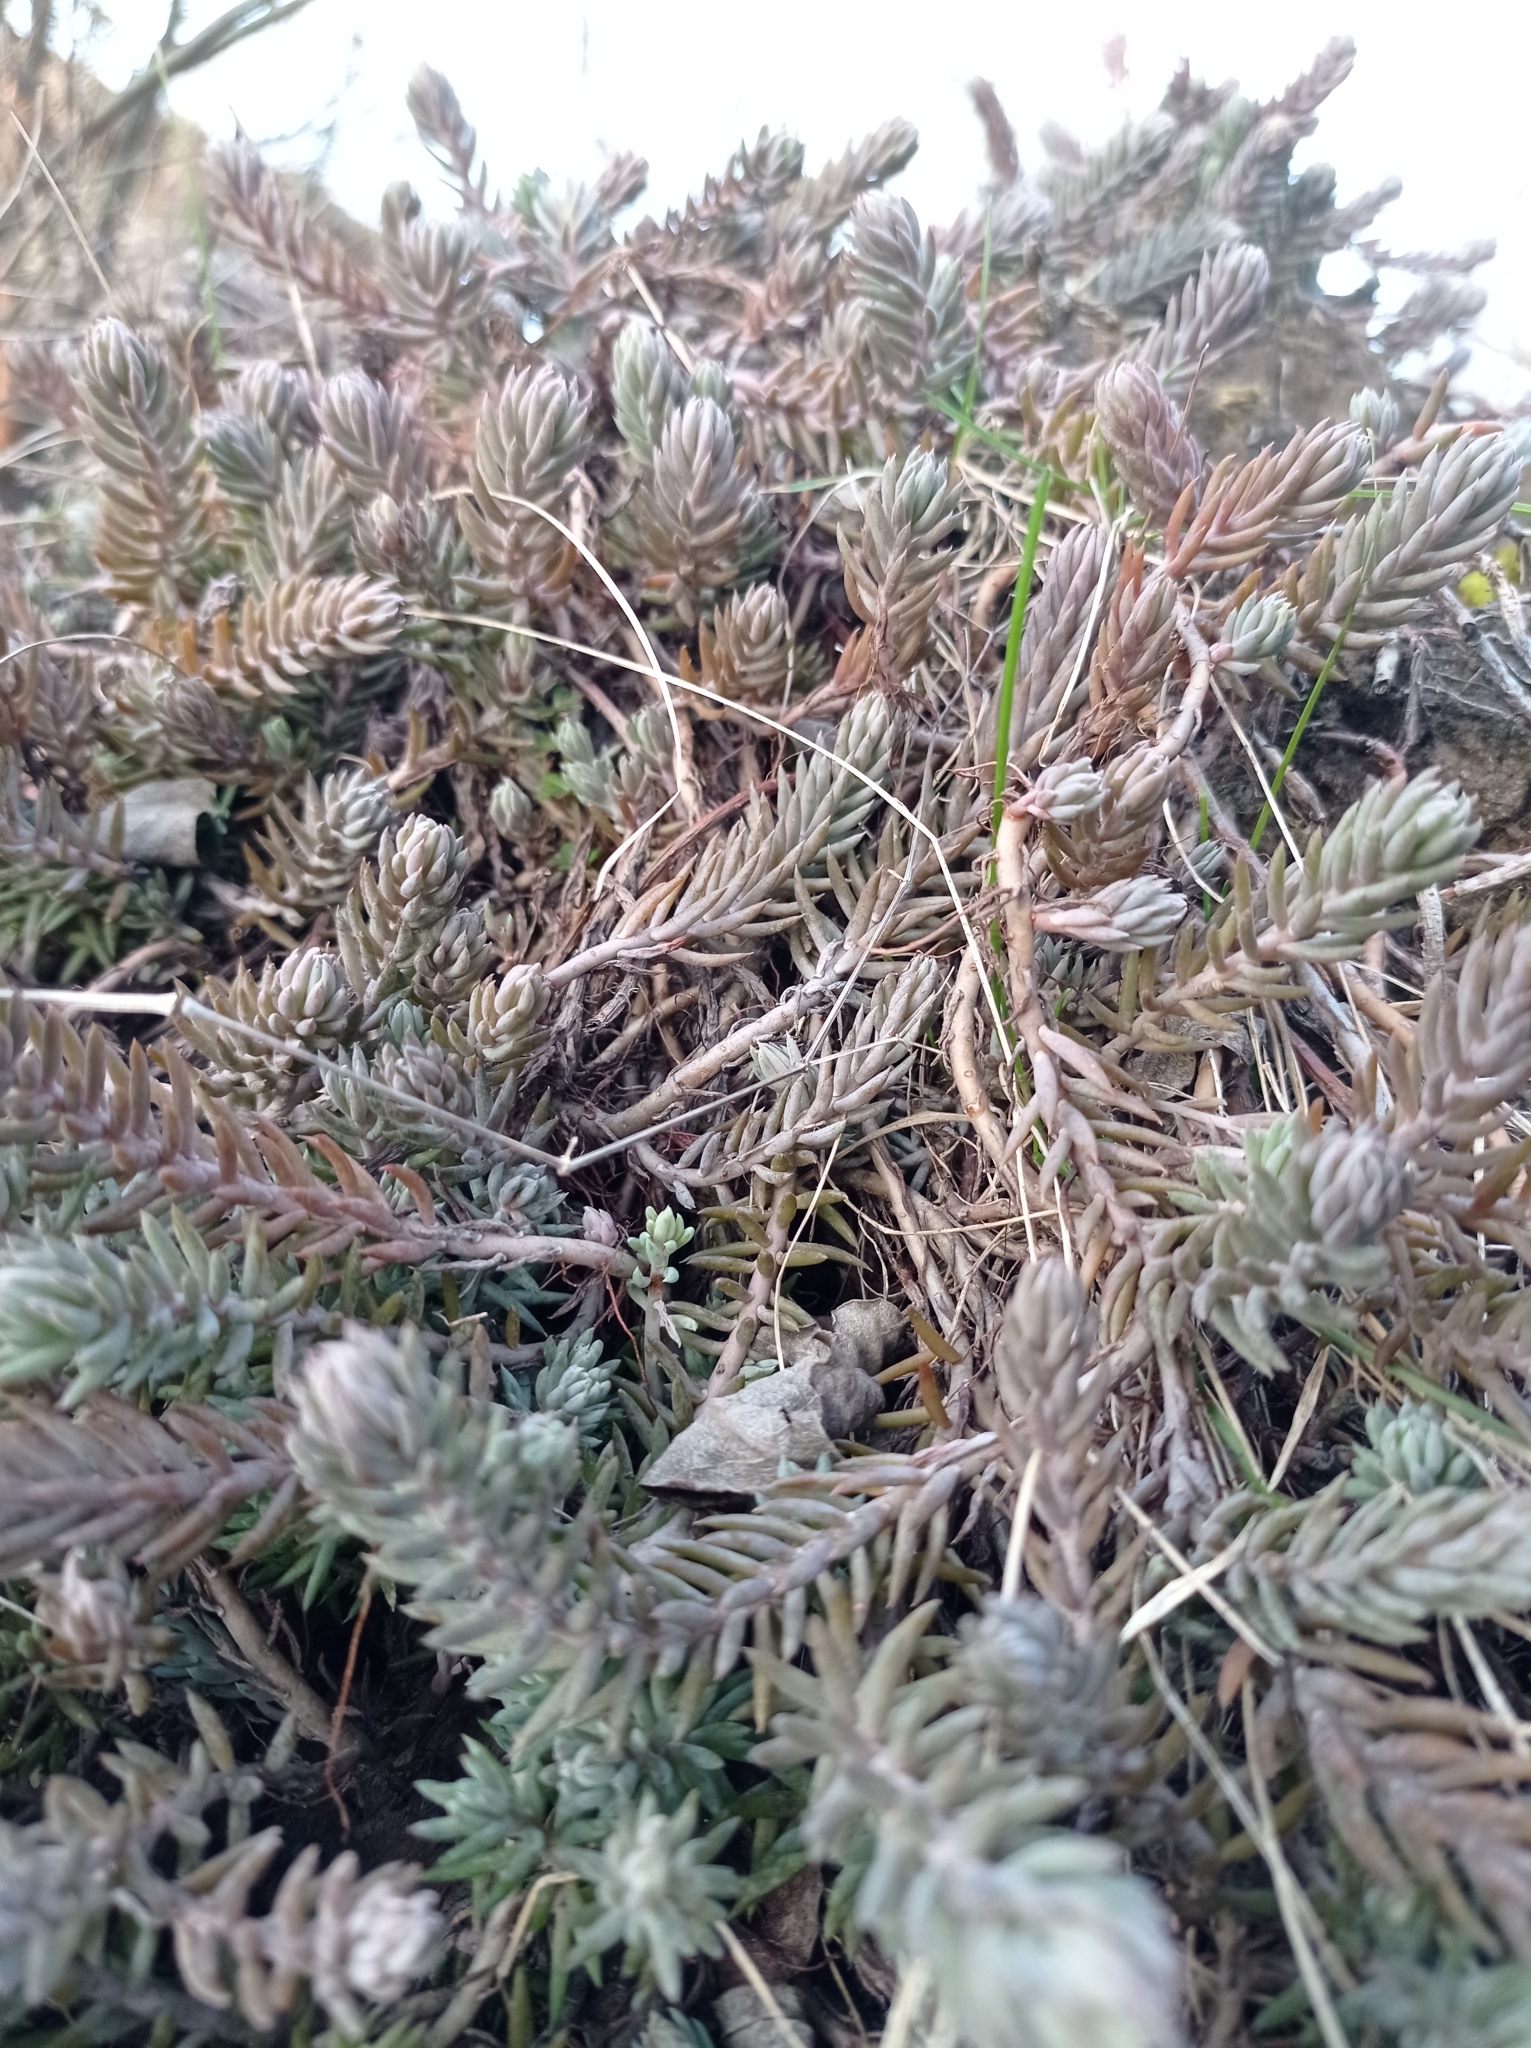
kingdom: Plantae
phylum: Tracheophyta
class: Magnoliopsida
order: Saxifragales
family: Crassulaceae
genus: Petrosedum
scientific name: Petrosedum rupestre
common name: Jenny's stonecrop
